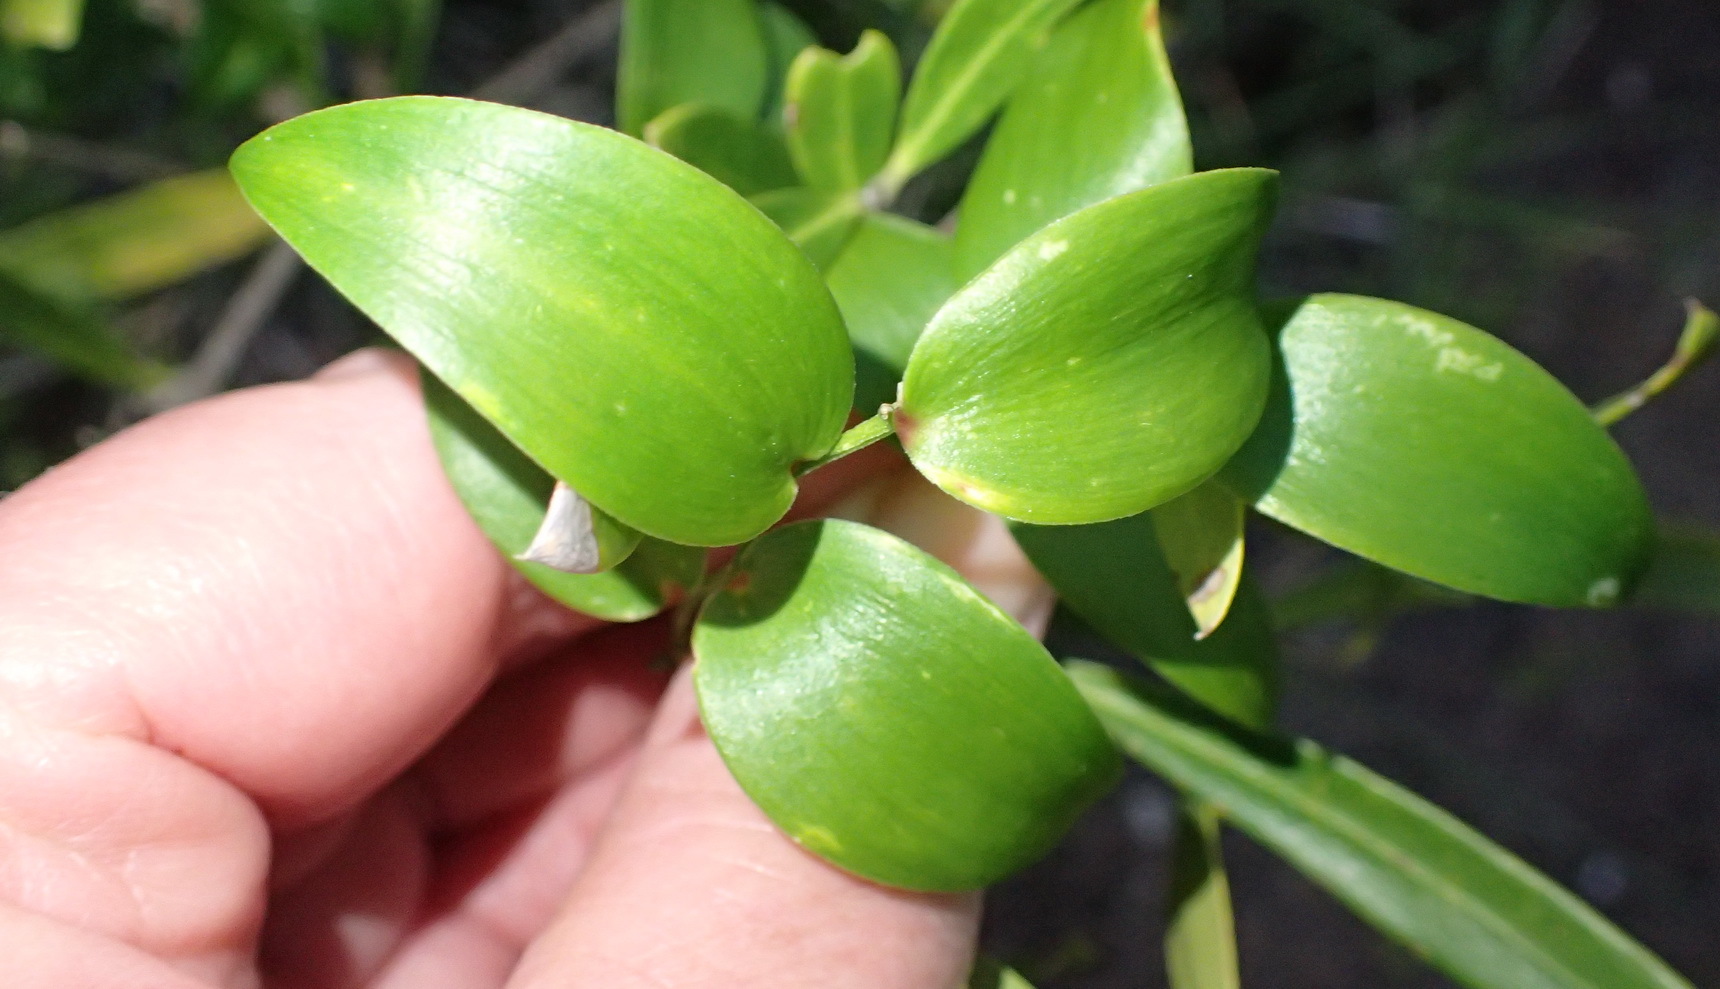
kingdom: Plantae
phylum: Tracheophyta
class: Liliopsida
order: Asparagales
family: Asparagaceae
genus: Asparagus
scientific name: Asparagus asparagoides
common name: African asparagus fern
